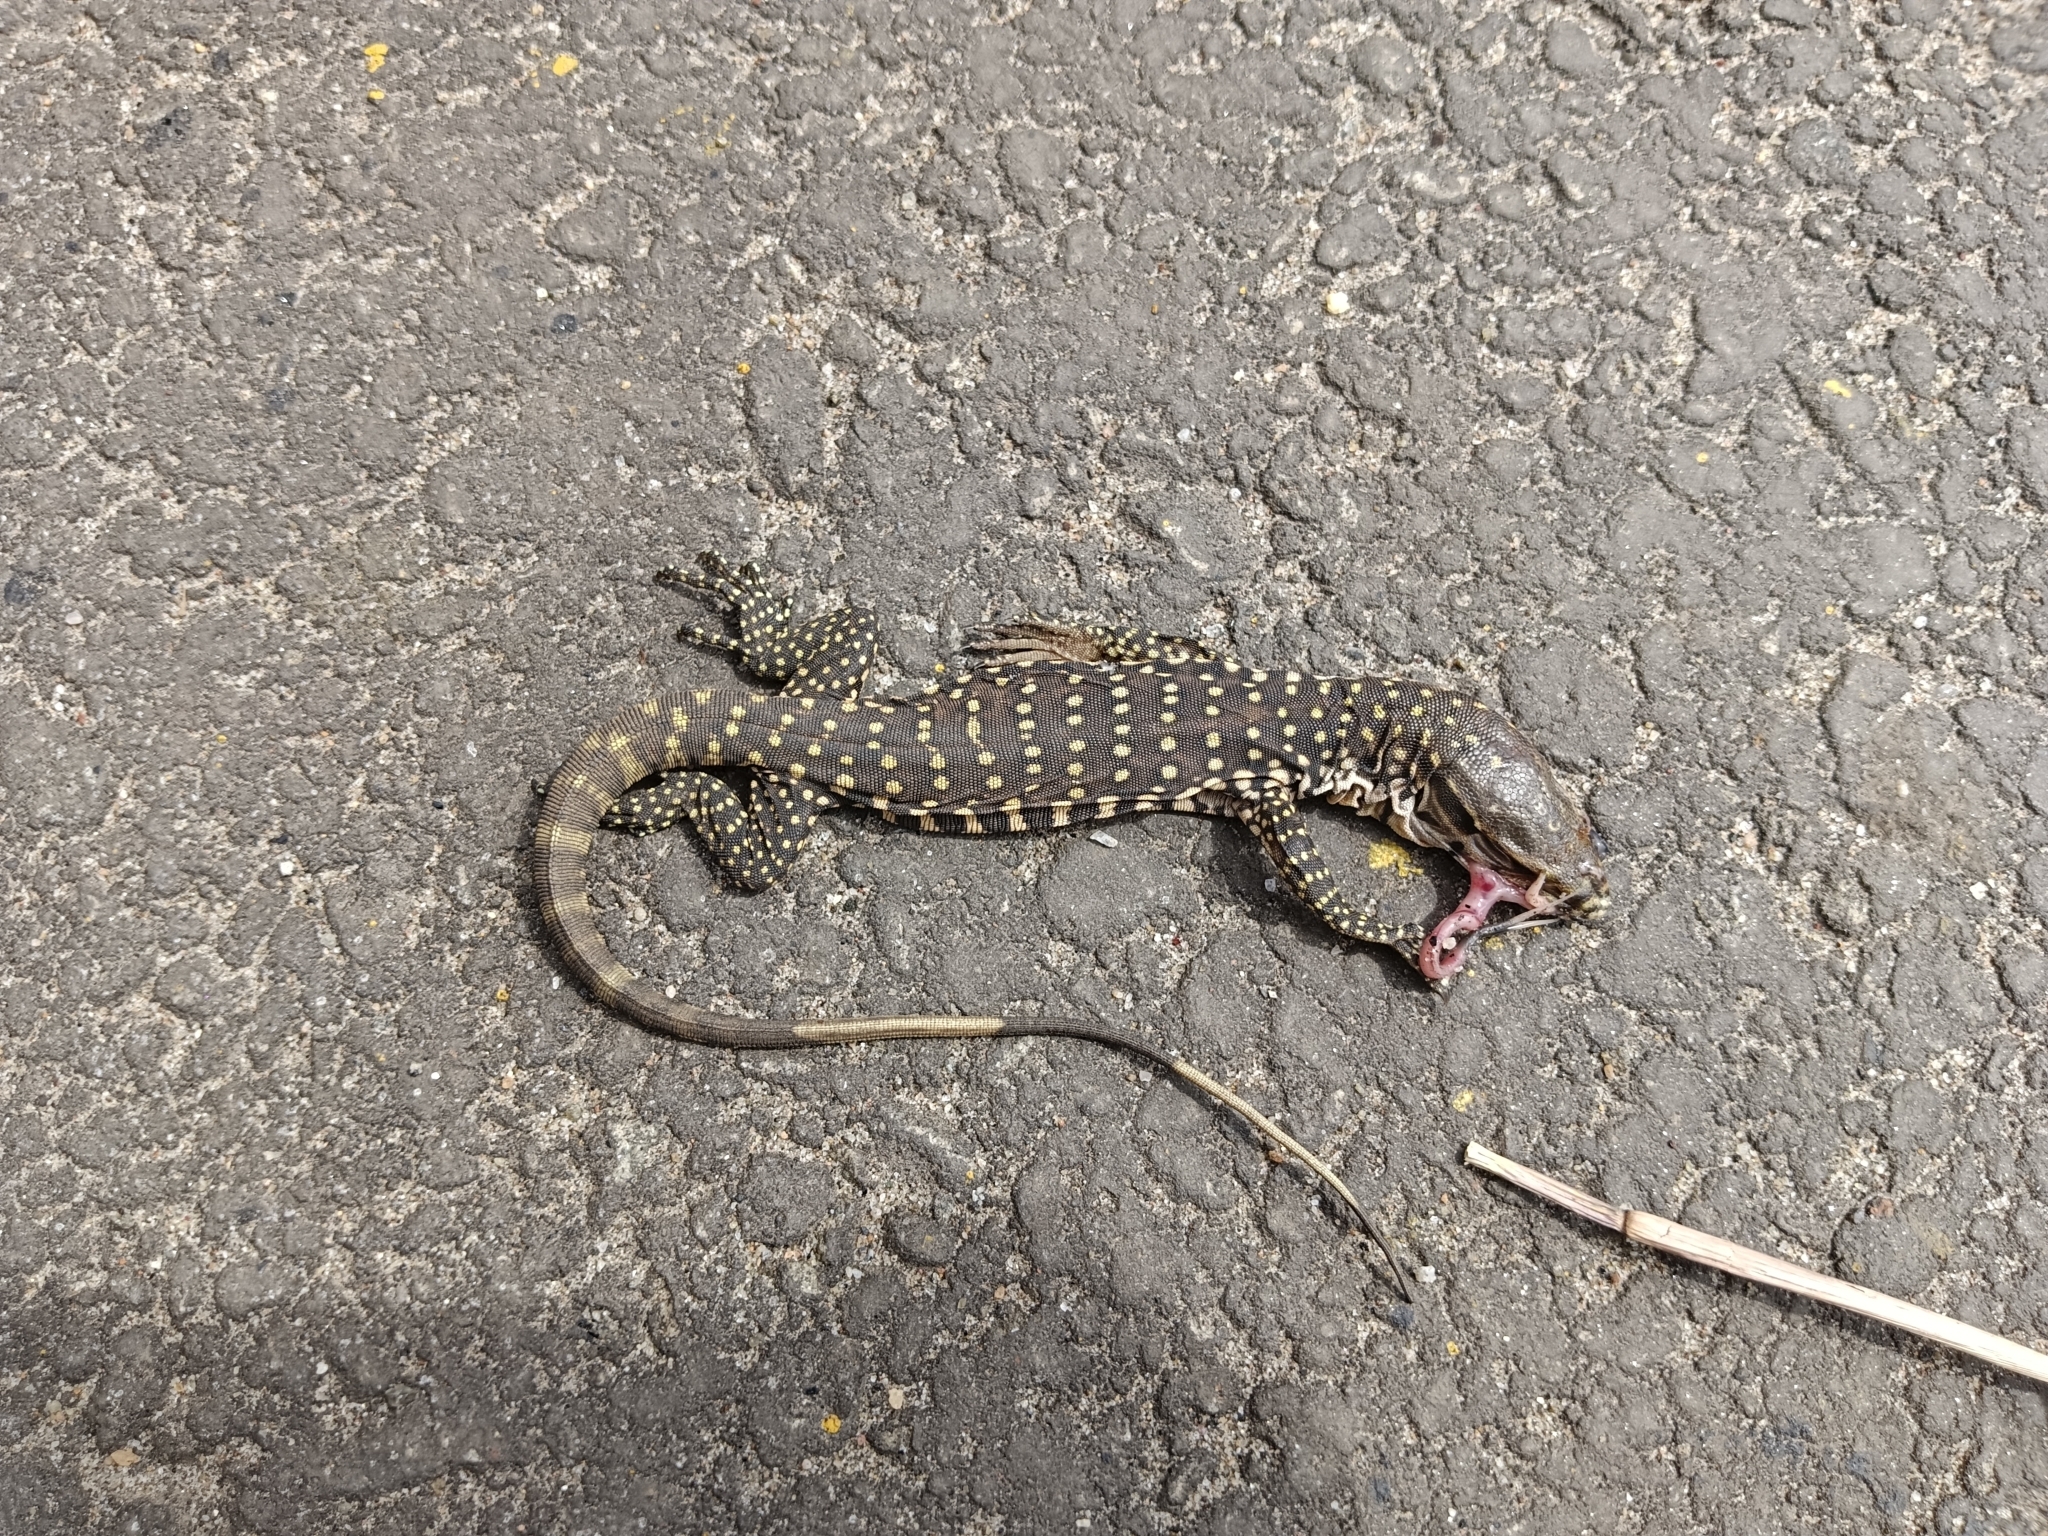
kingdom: Animalia
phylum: Chordata
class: Squamata
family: Varanidae
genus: Varanus
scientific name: Varanus bengalensis
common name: Bengal monitor
